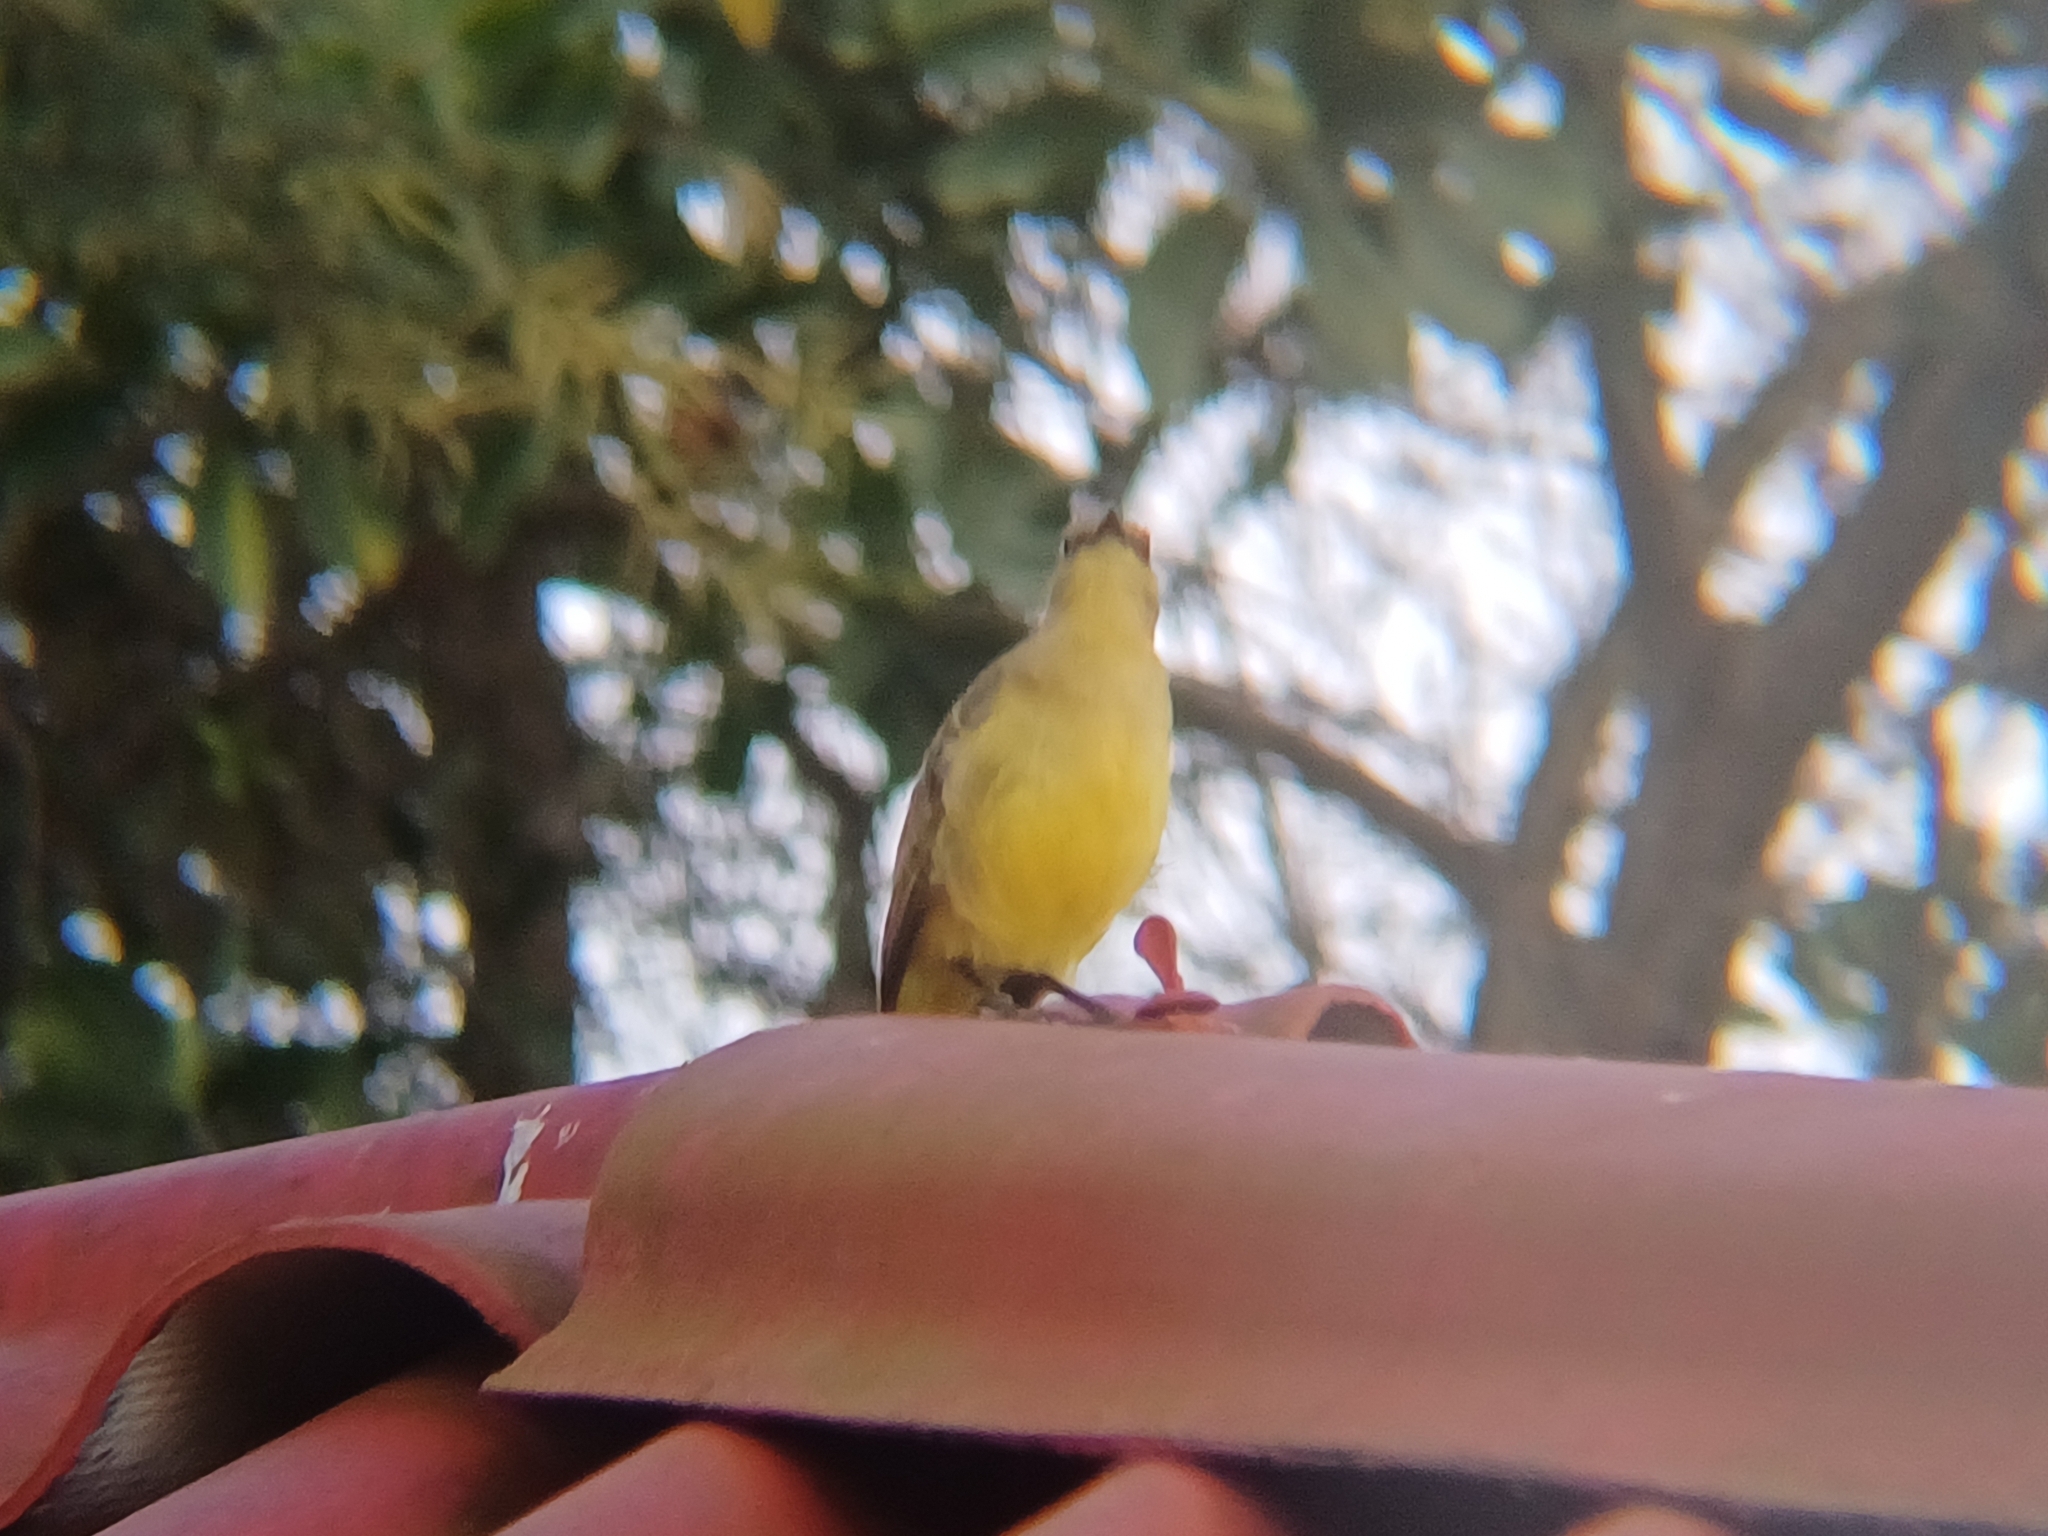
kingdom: Animalia
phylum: Chordata
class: Aves
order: Passeriformes
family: Tyrannidae
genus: Machetornis
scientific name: Machetornis rixosa
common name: Cattle tyrant
